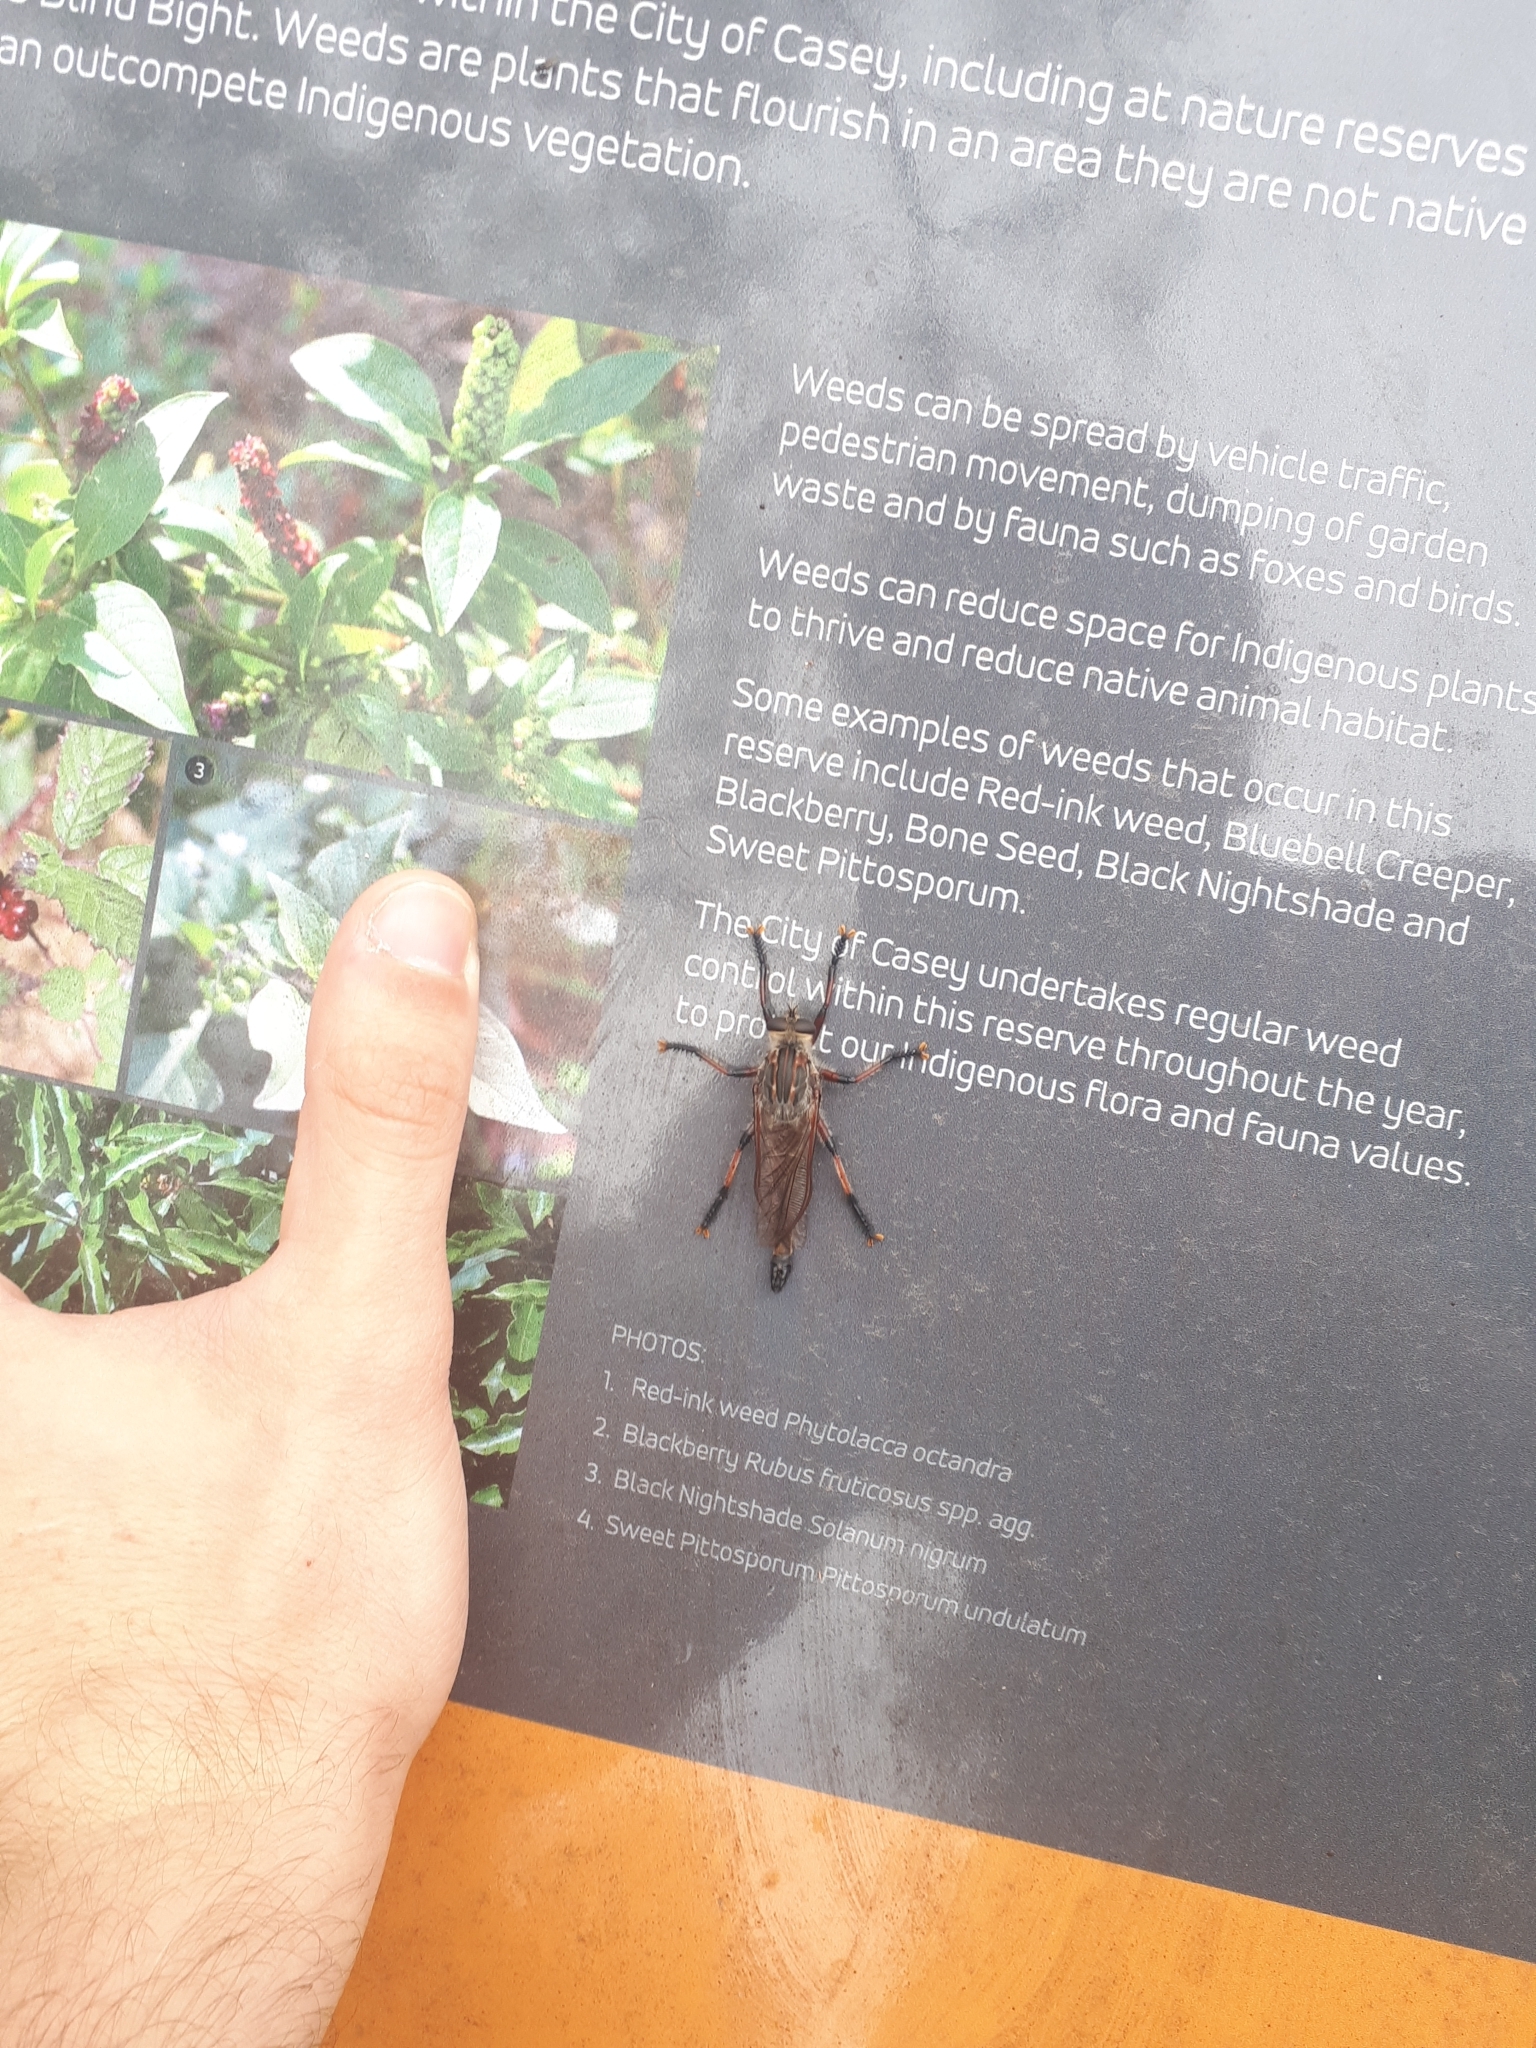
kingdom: Animalia
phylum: Arthropoda
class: Insecta
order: Diptera
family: Asilidae
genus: Neoaratus
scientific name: Neoaratus hercules
